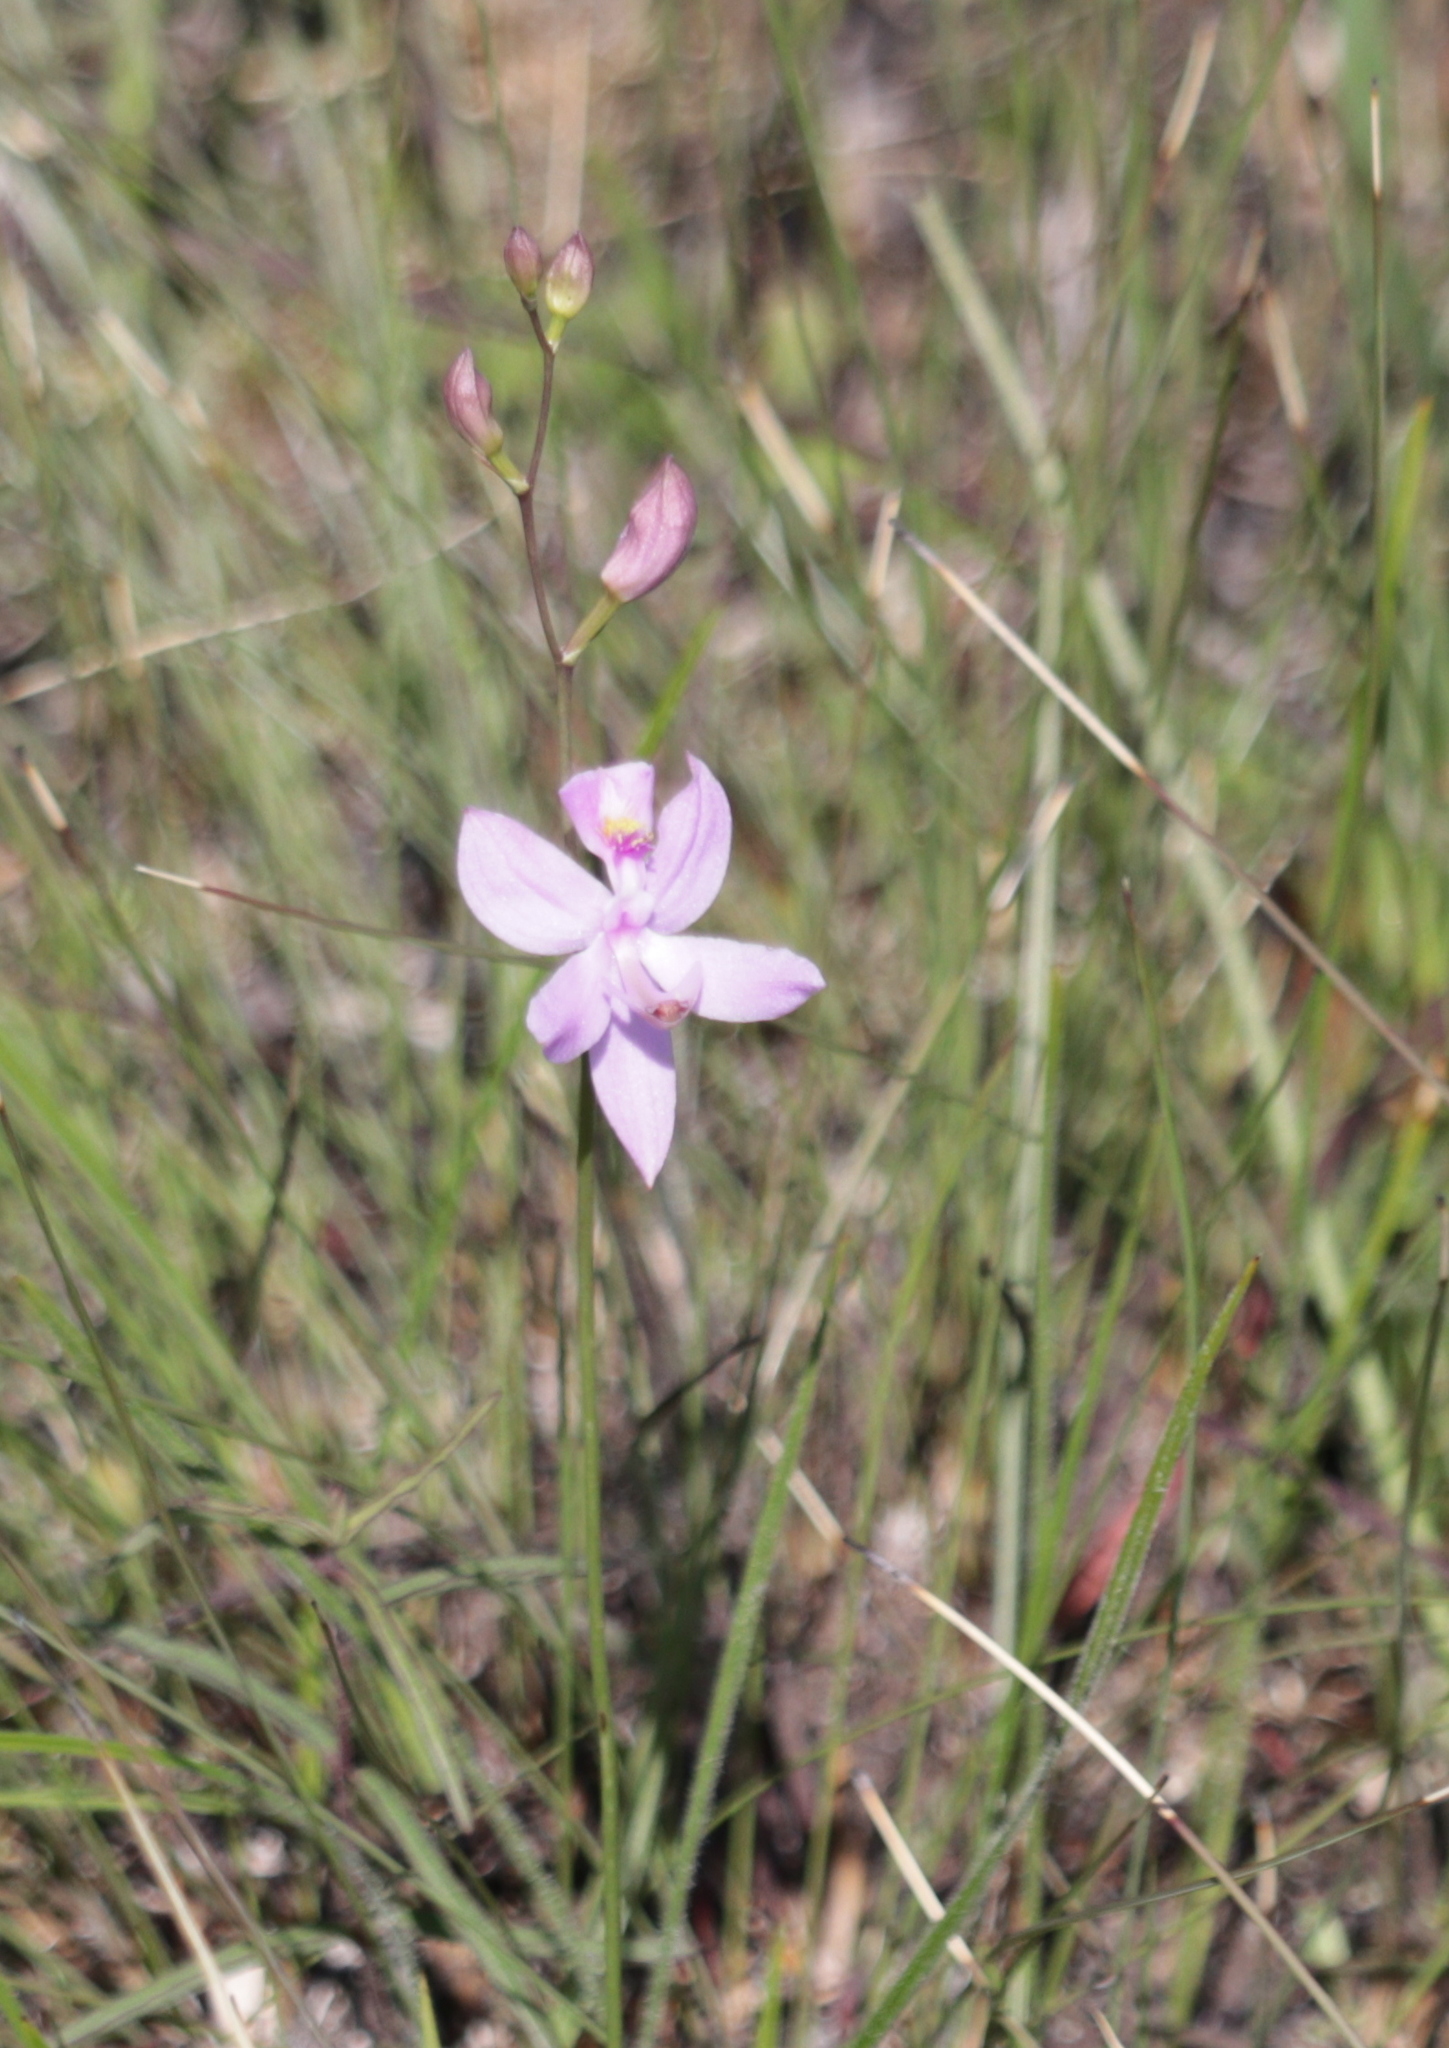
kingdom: Plantae
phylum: Tracheophyta
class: Liliopsida
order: Asparagales
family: Orchidaceae
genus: Calopogon
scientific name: Calopogon pallidus
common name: Pale grasspink
